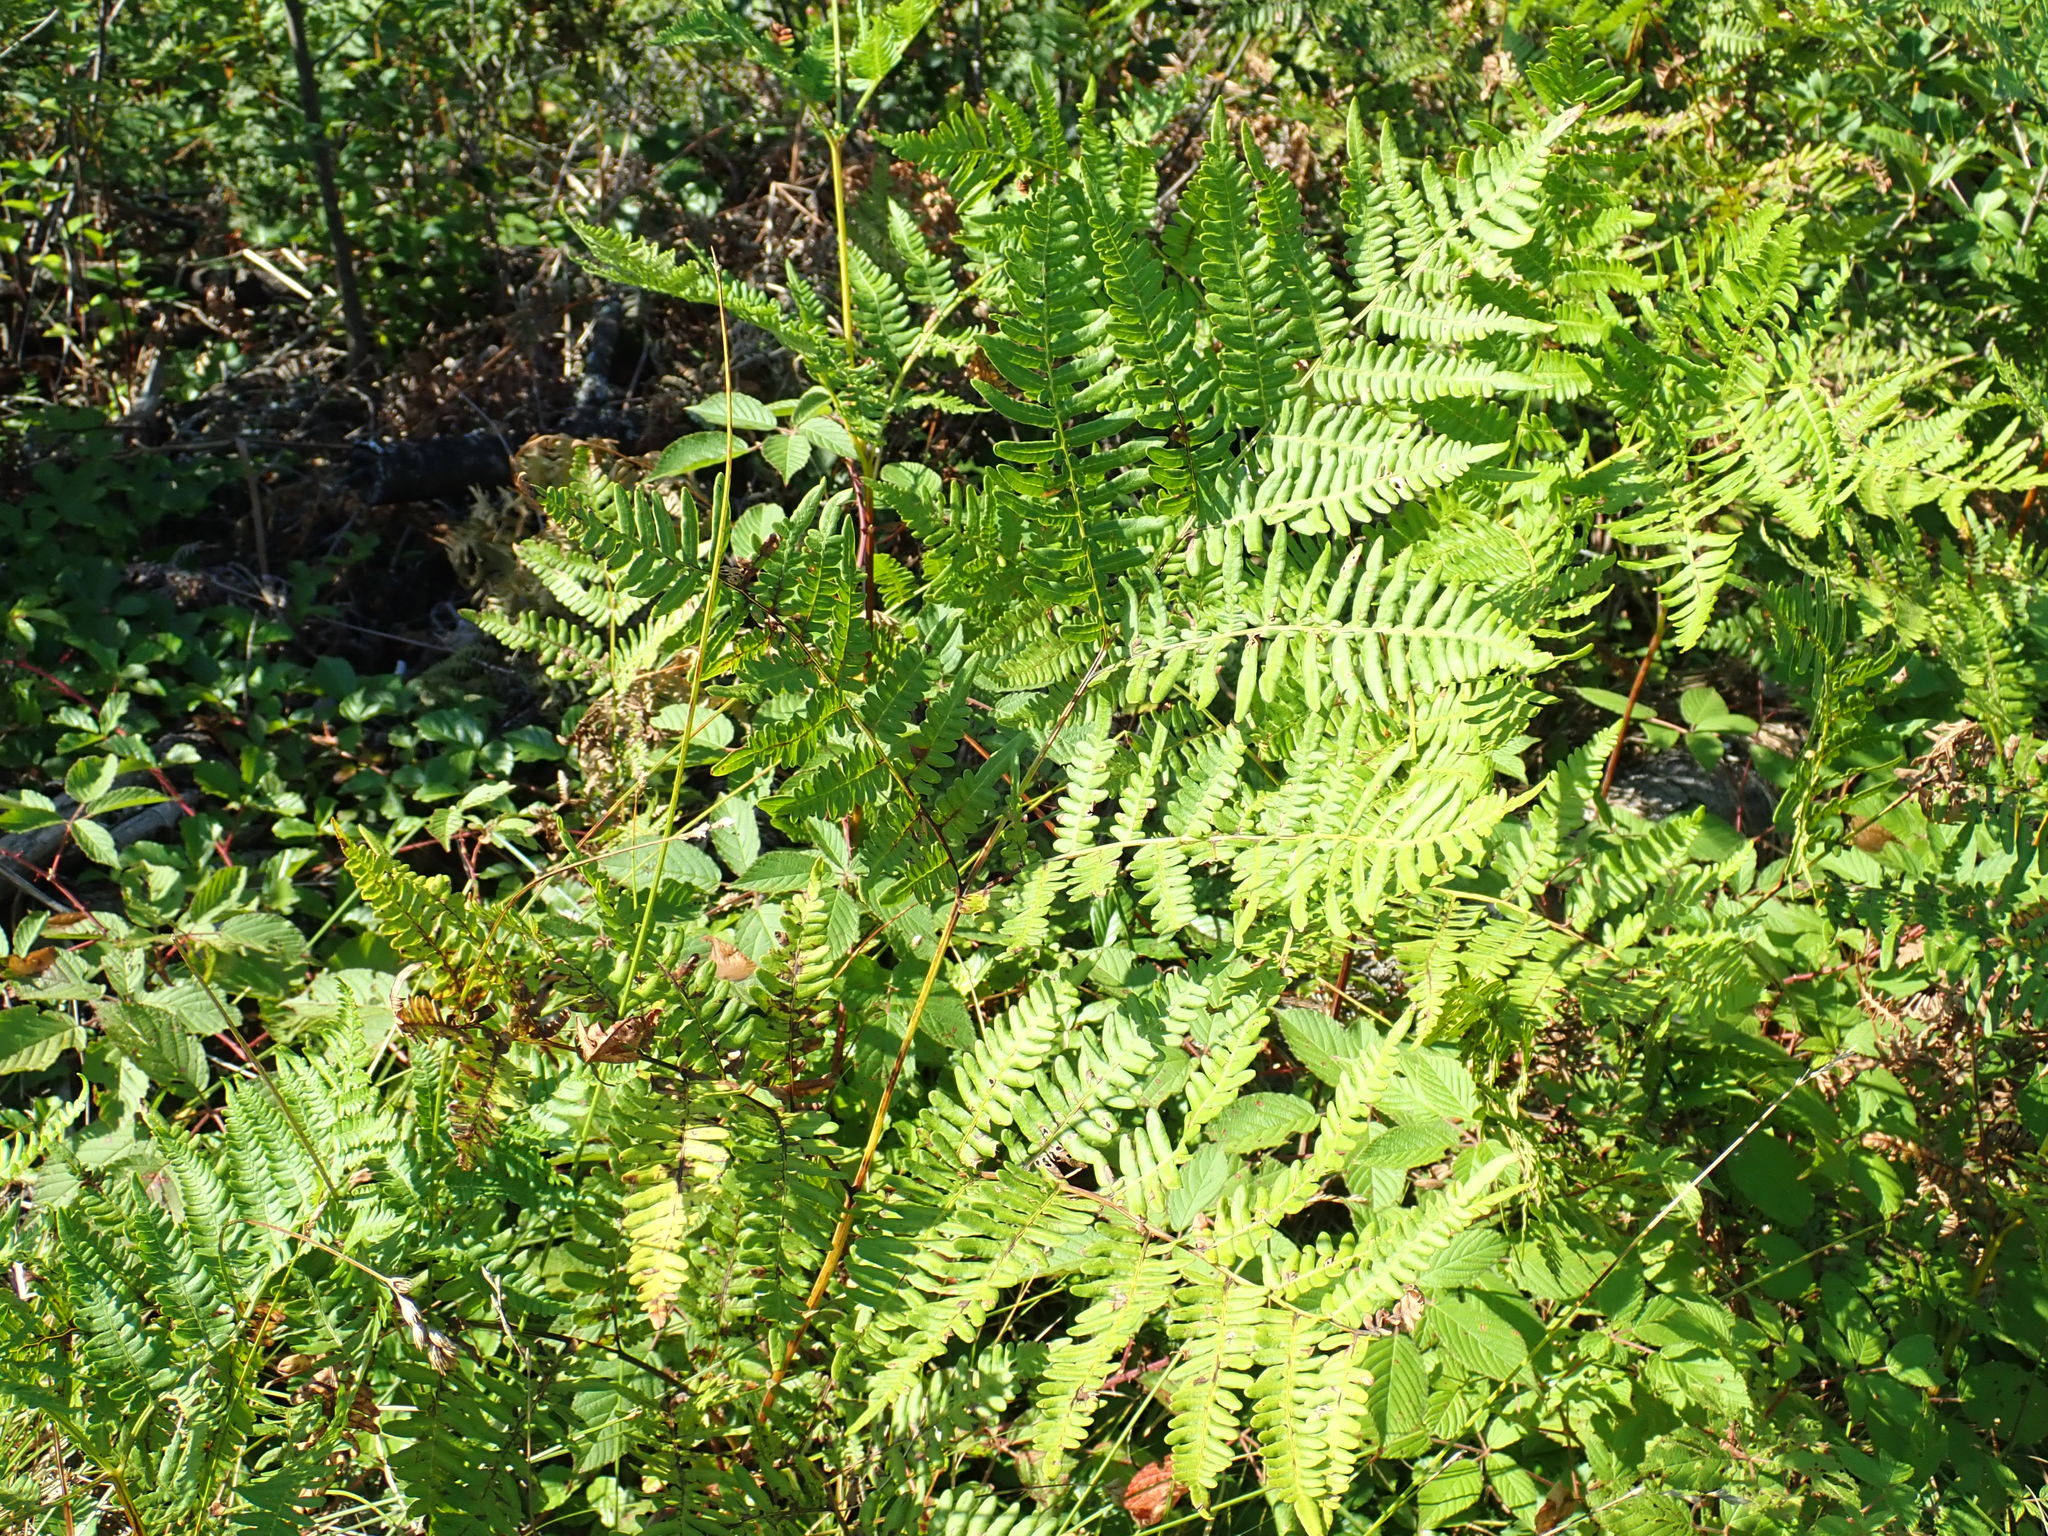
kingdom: Plantae
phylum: Tracheophyta
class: Polypodiopsida
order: Polypodiales
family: Dennstaedtiaceae
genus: Pteridium
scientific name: Pteridium aquilinum
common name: Bracken
